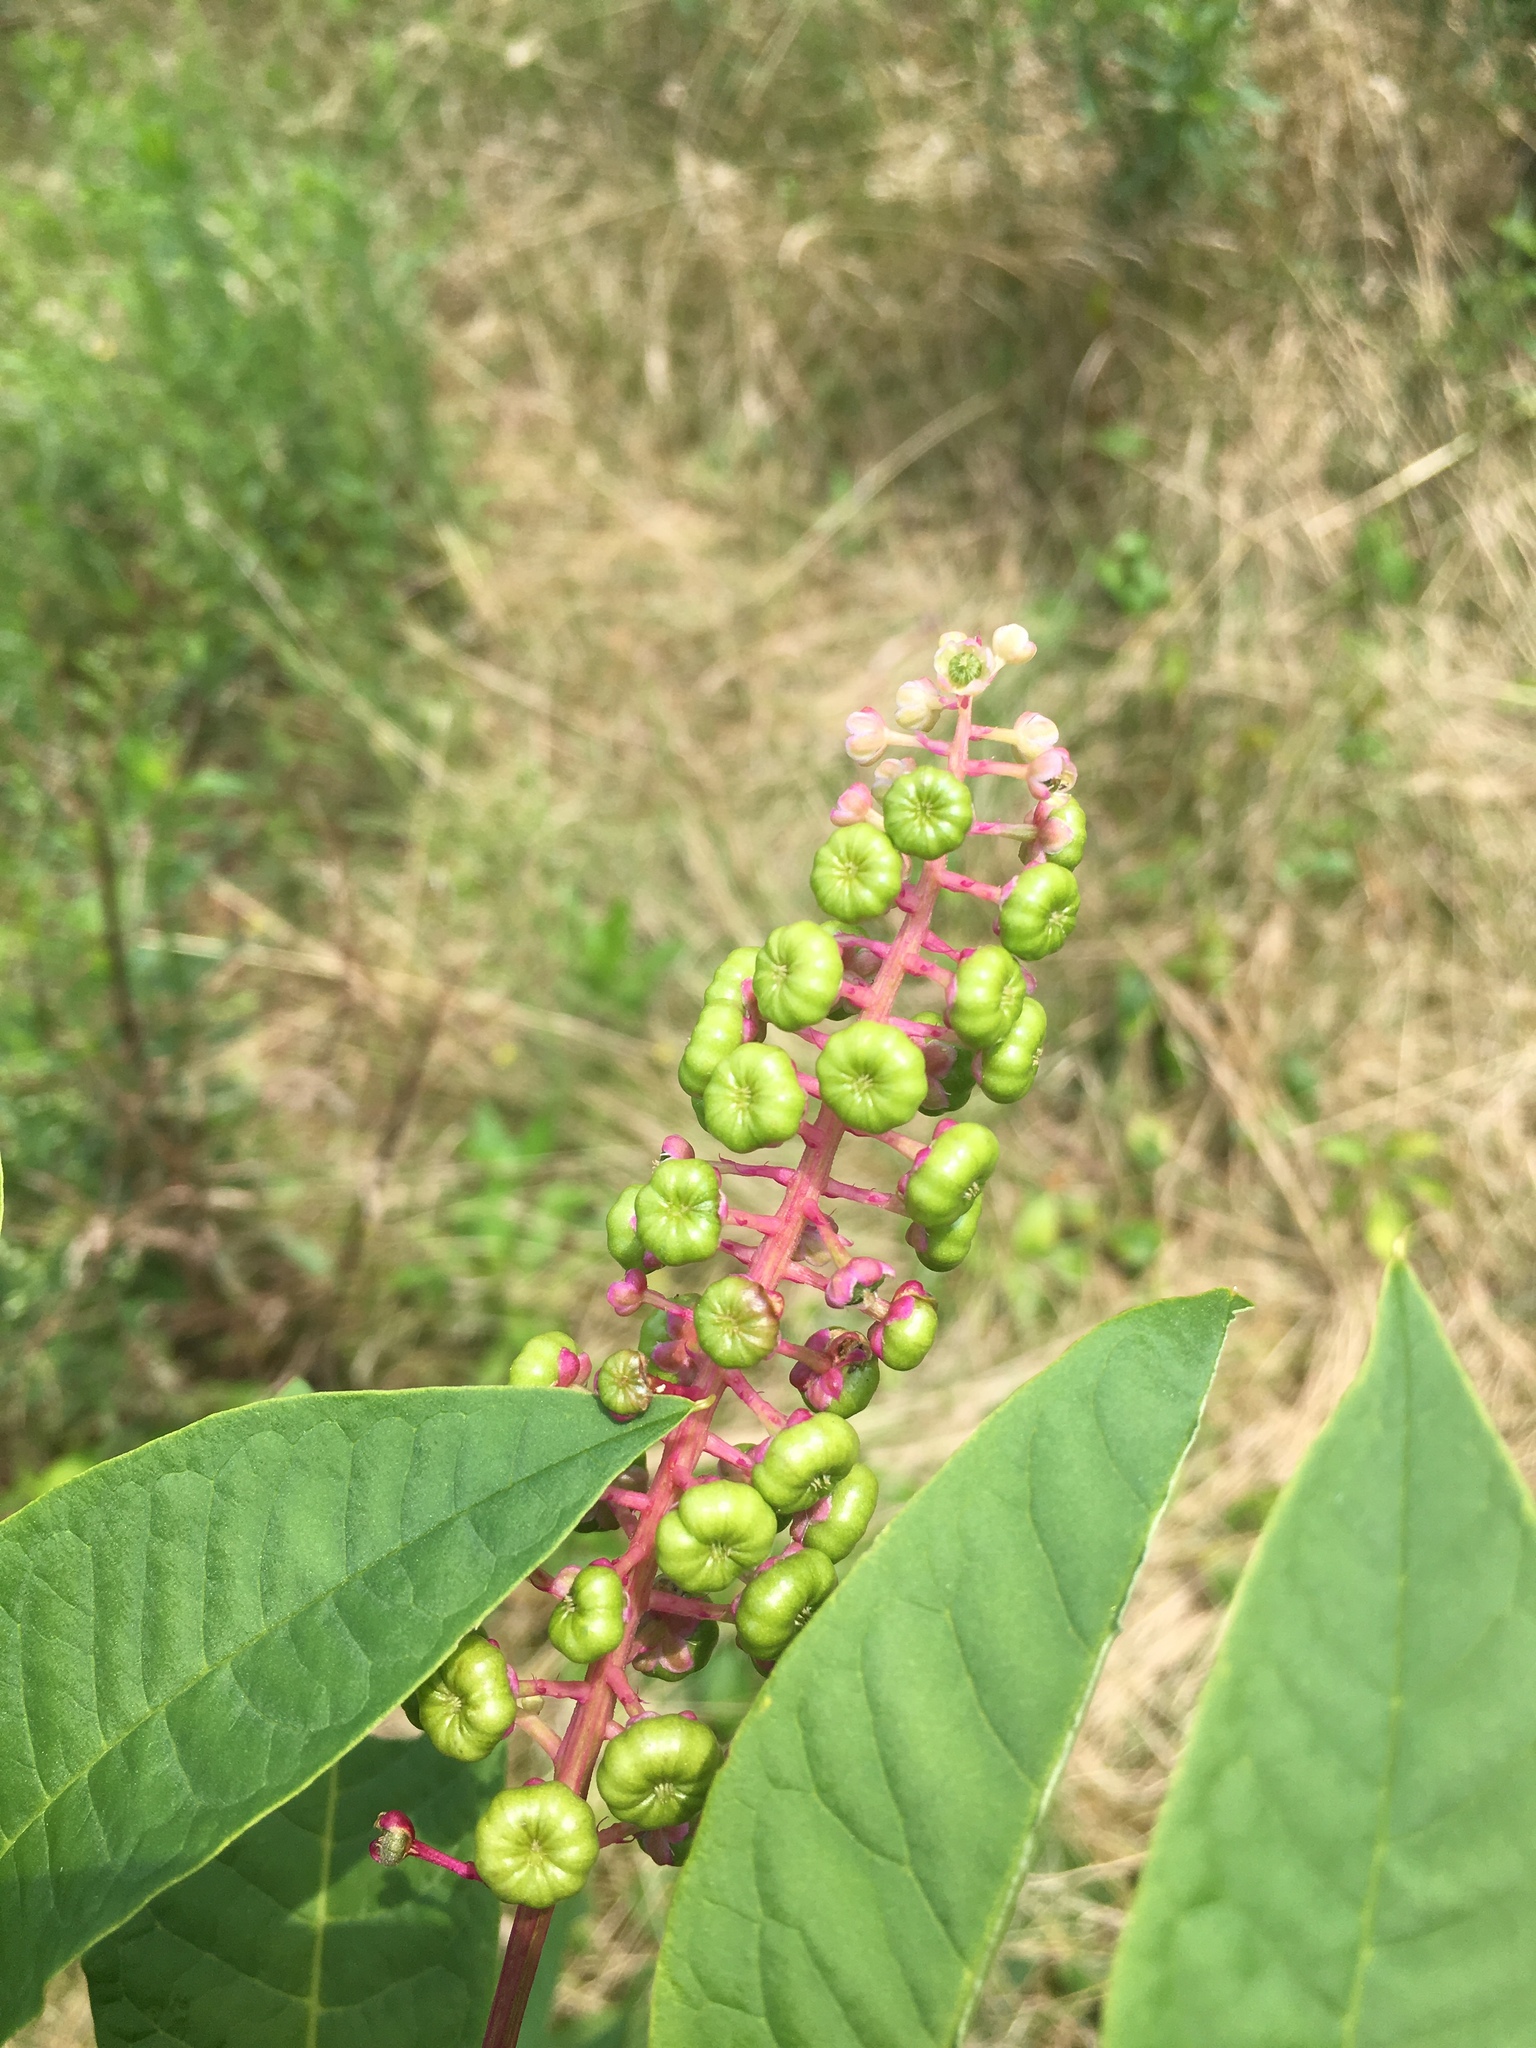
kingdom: Plantae
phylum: Tracheophyta
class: Magnoliopsida
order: Caryophyllales
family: Phytolaccaceae
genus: Phytolacca
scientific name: Phytolacca americana
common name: American pokeweed
